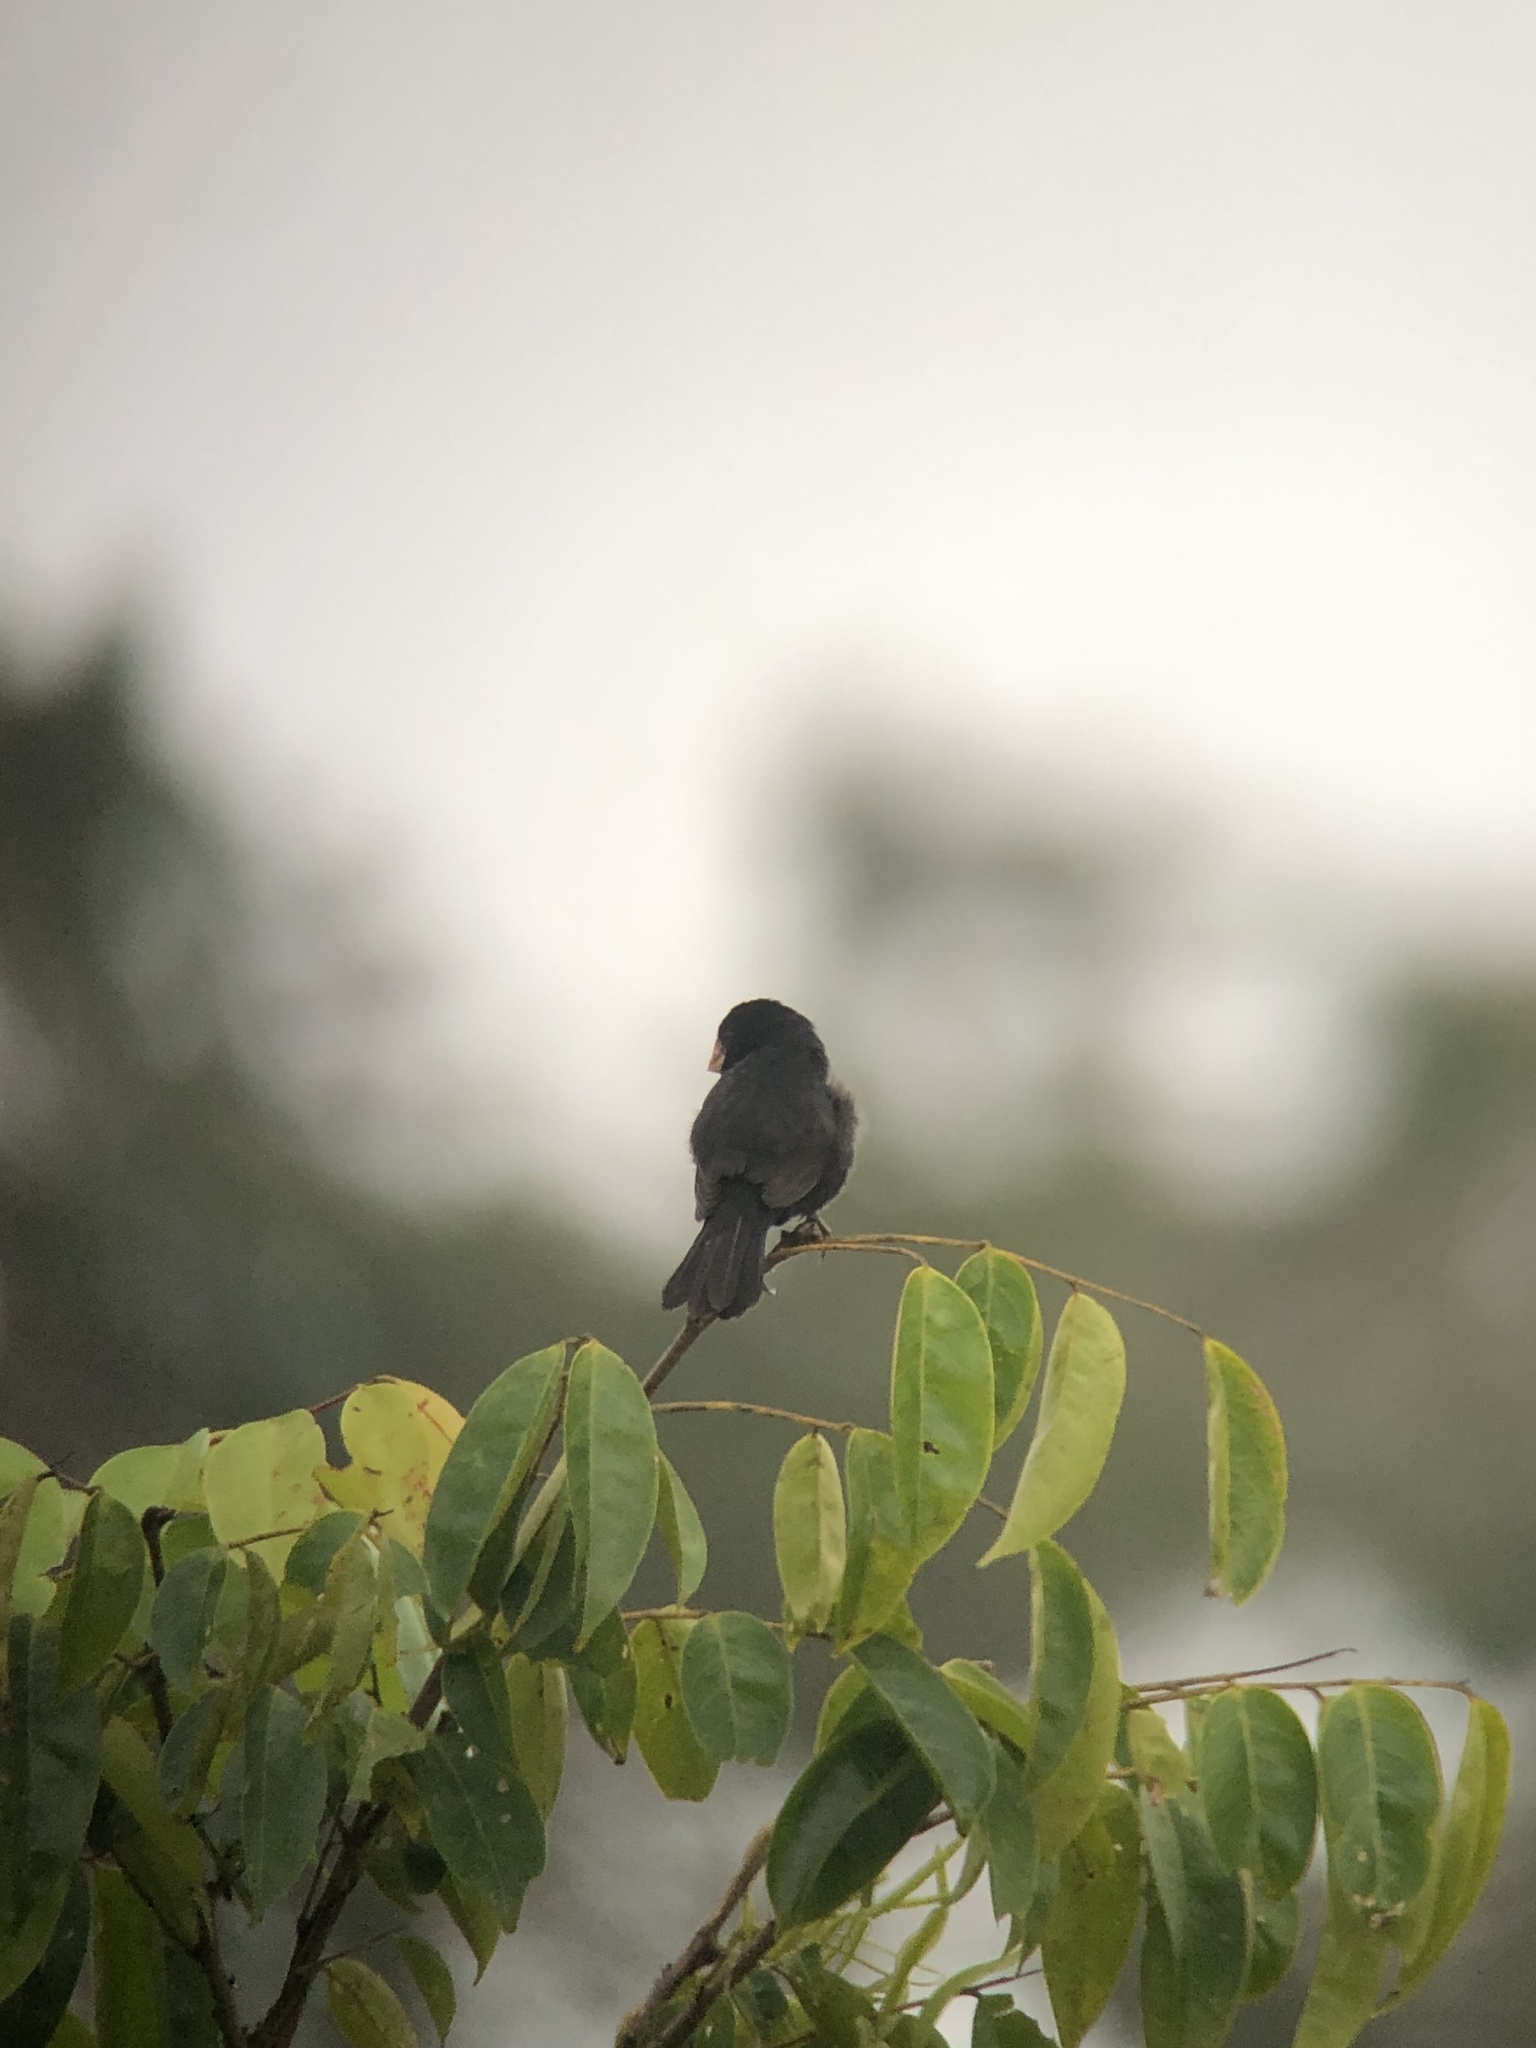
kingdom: Animalia
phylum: Chordata
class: Aves
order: Passeriformes
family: Thraupidae
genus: Sporophila
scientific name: Sporophila nuttingi
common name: Nicaraguan seed-finch
